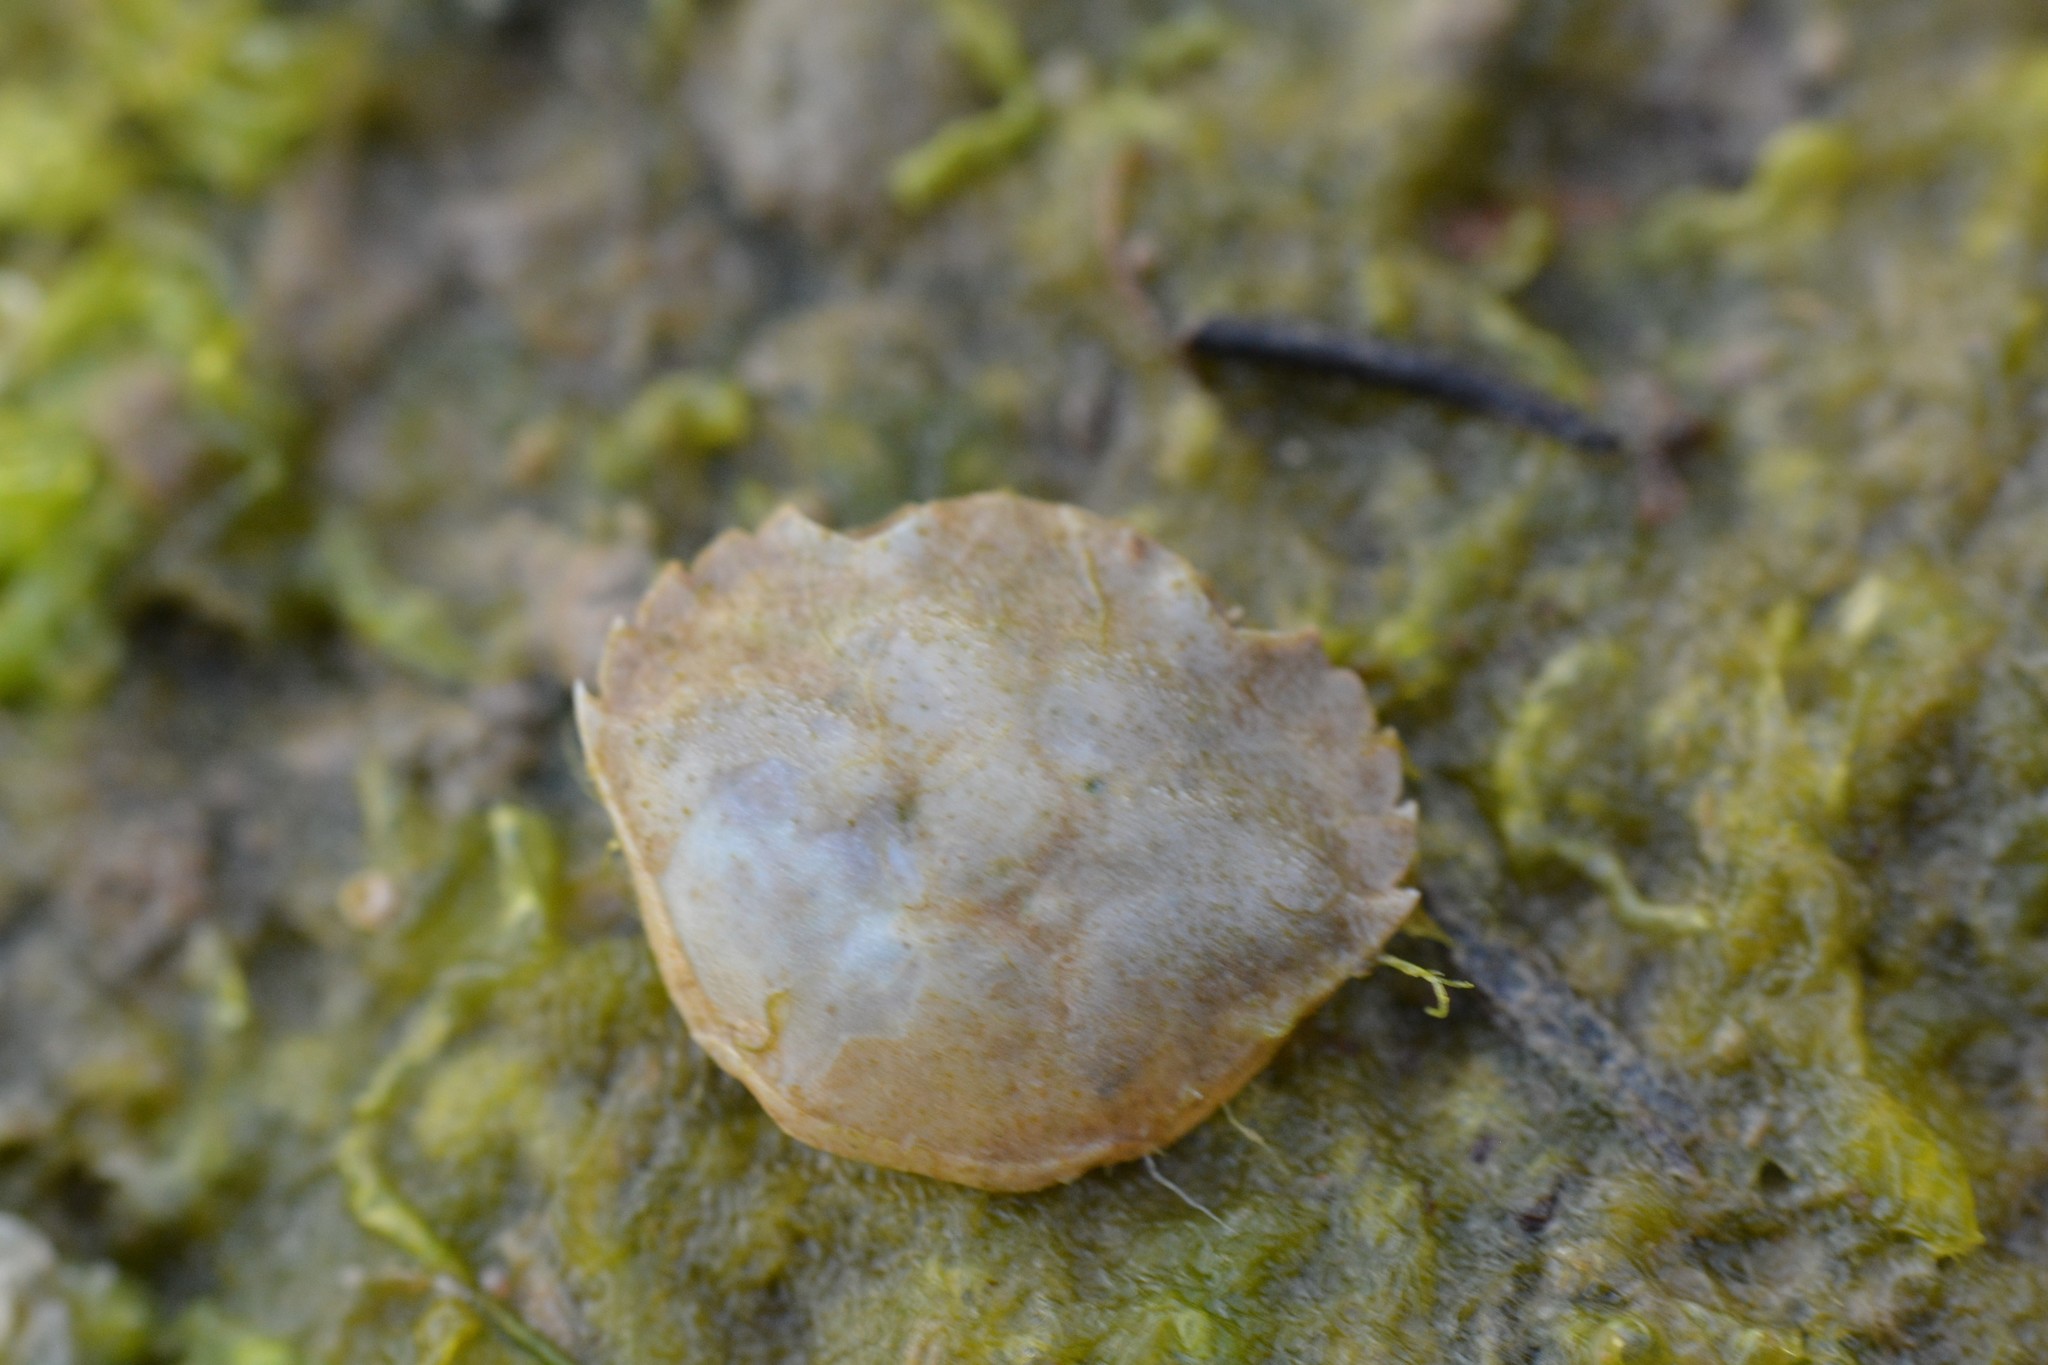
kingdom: Animalia
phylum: Arthropoda
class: Malacostraca
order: Decapoda
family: Carcinidae
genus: Carcinus
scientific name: Carcinus maenas
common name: European green crab
